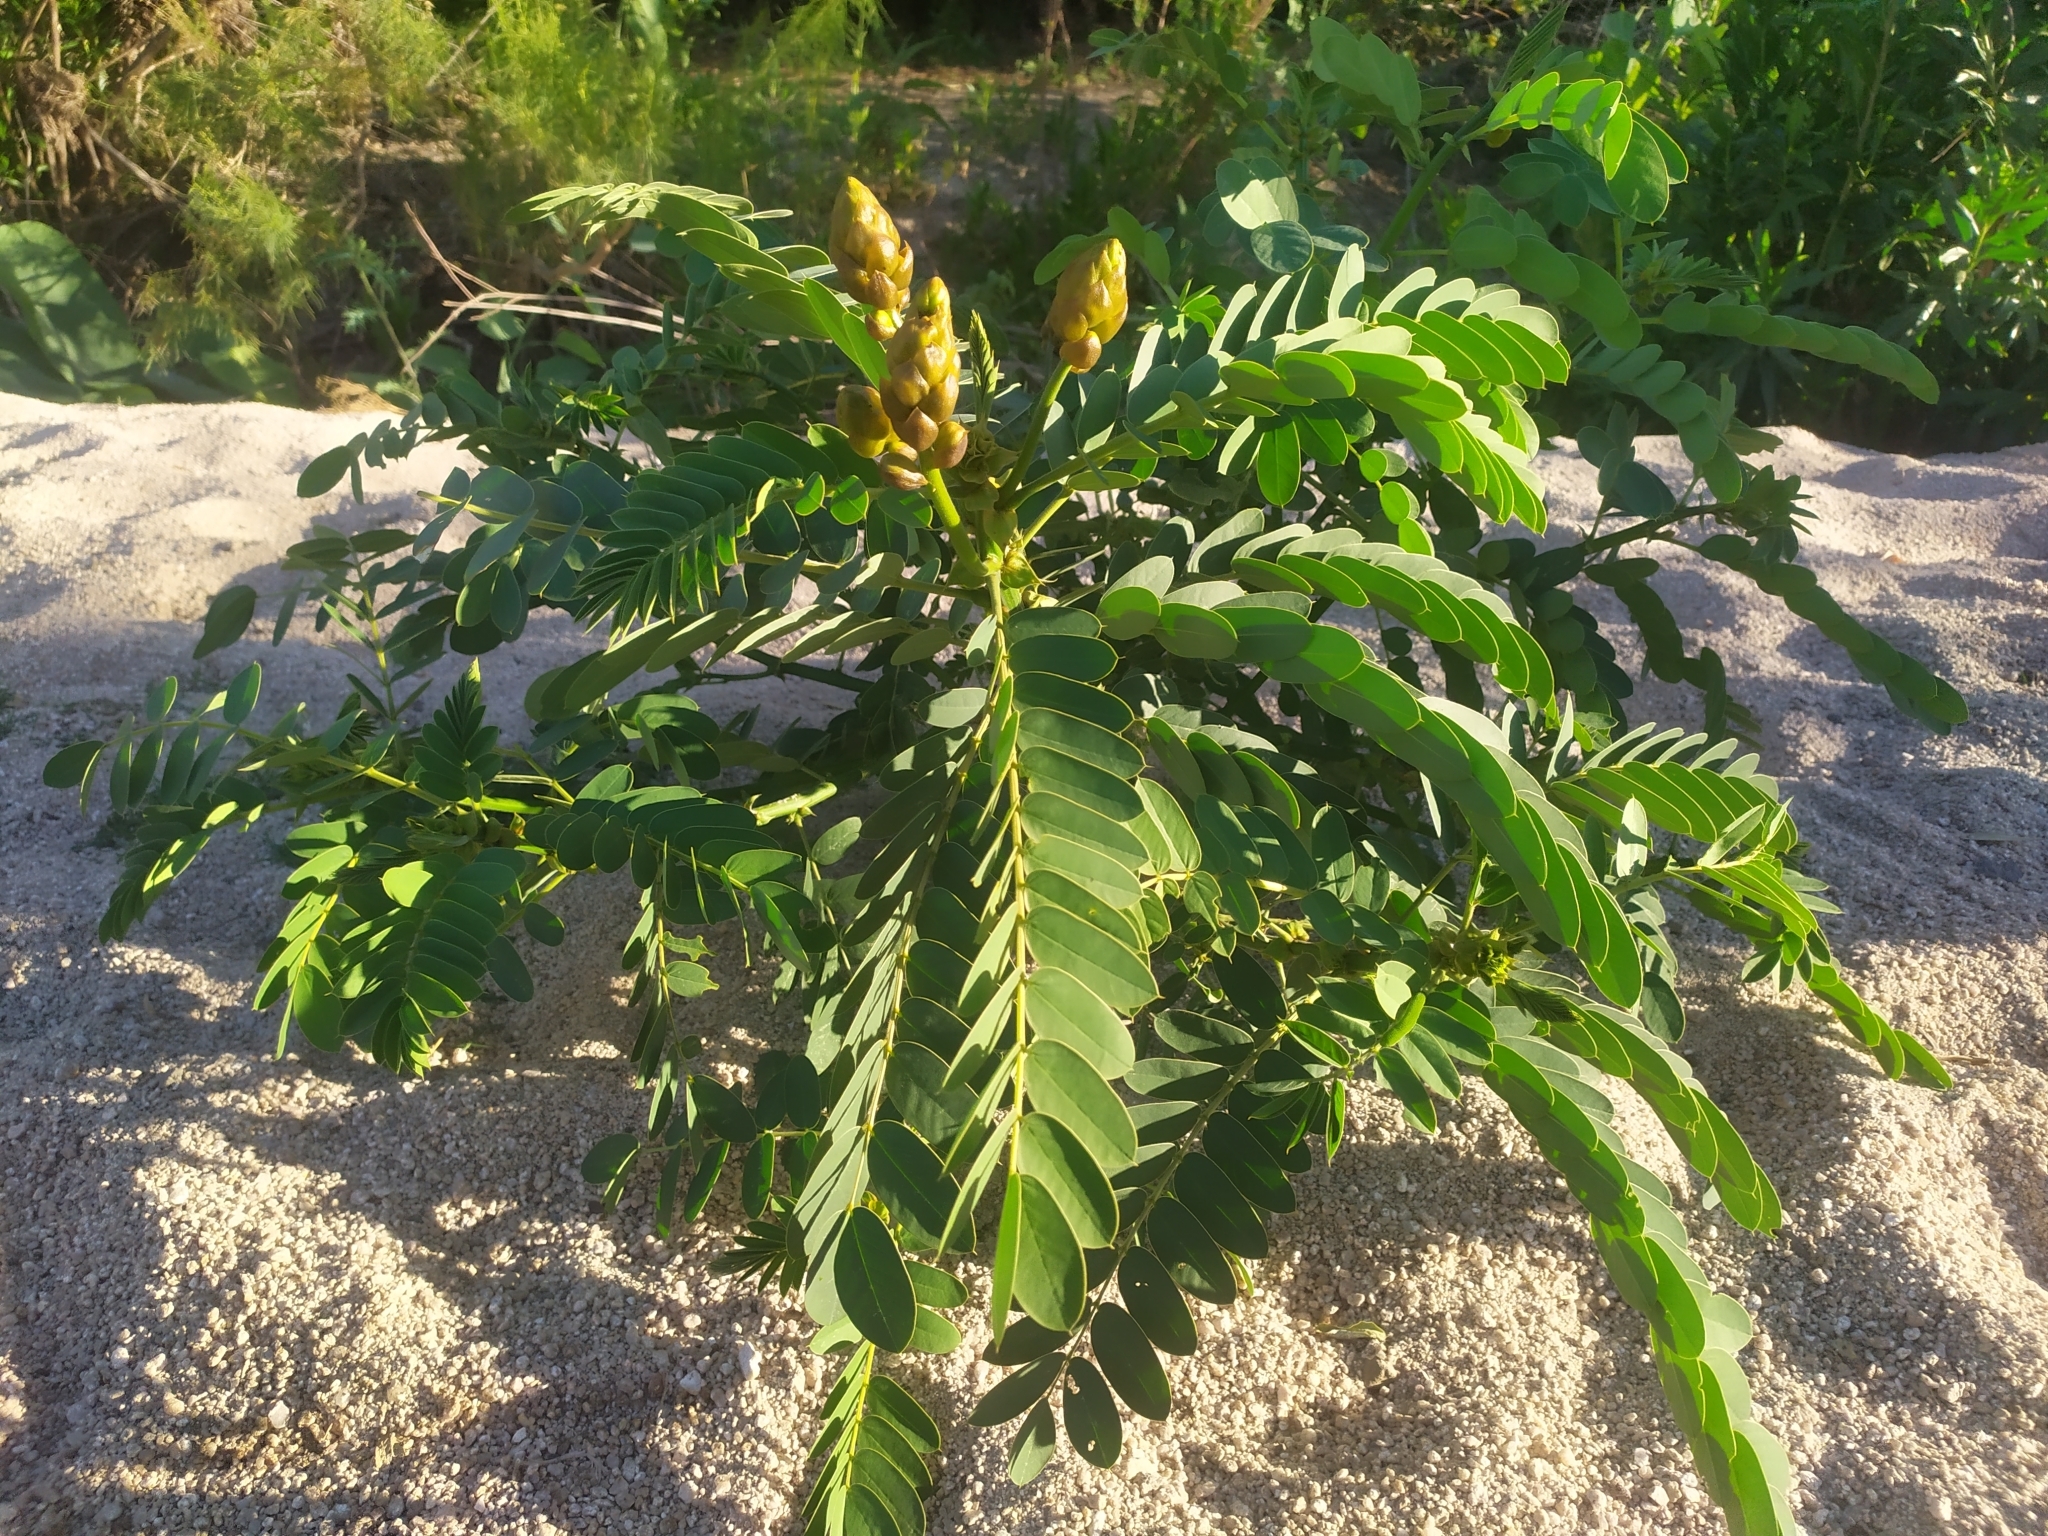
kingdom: Plantae
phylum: Tracheophyta
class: Magnoliopsida
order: Fabales
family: Fabaceae
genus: Senna
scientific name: Senna alata
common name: Emperor's candlesticks
